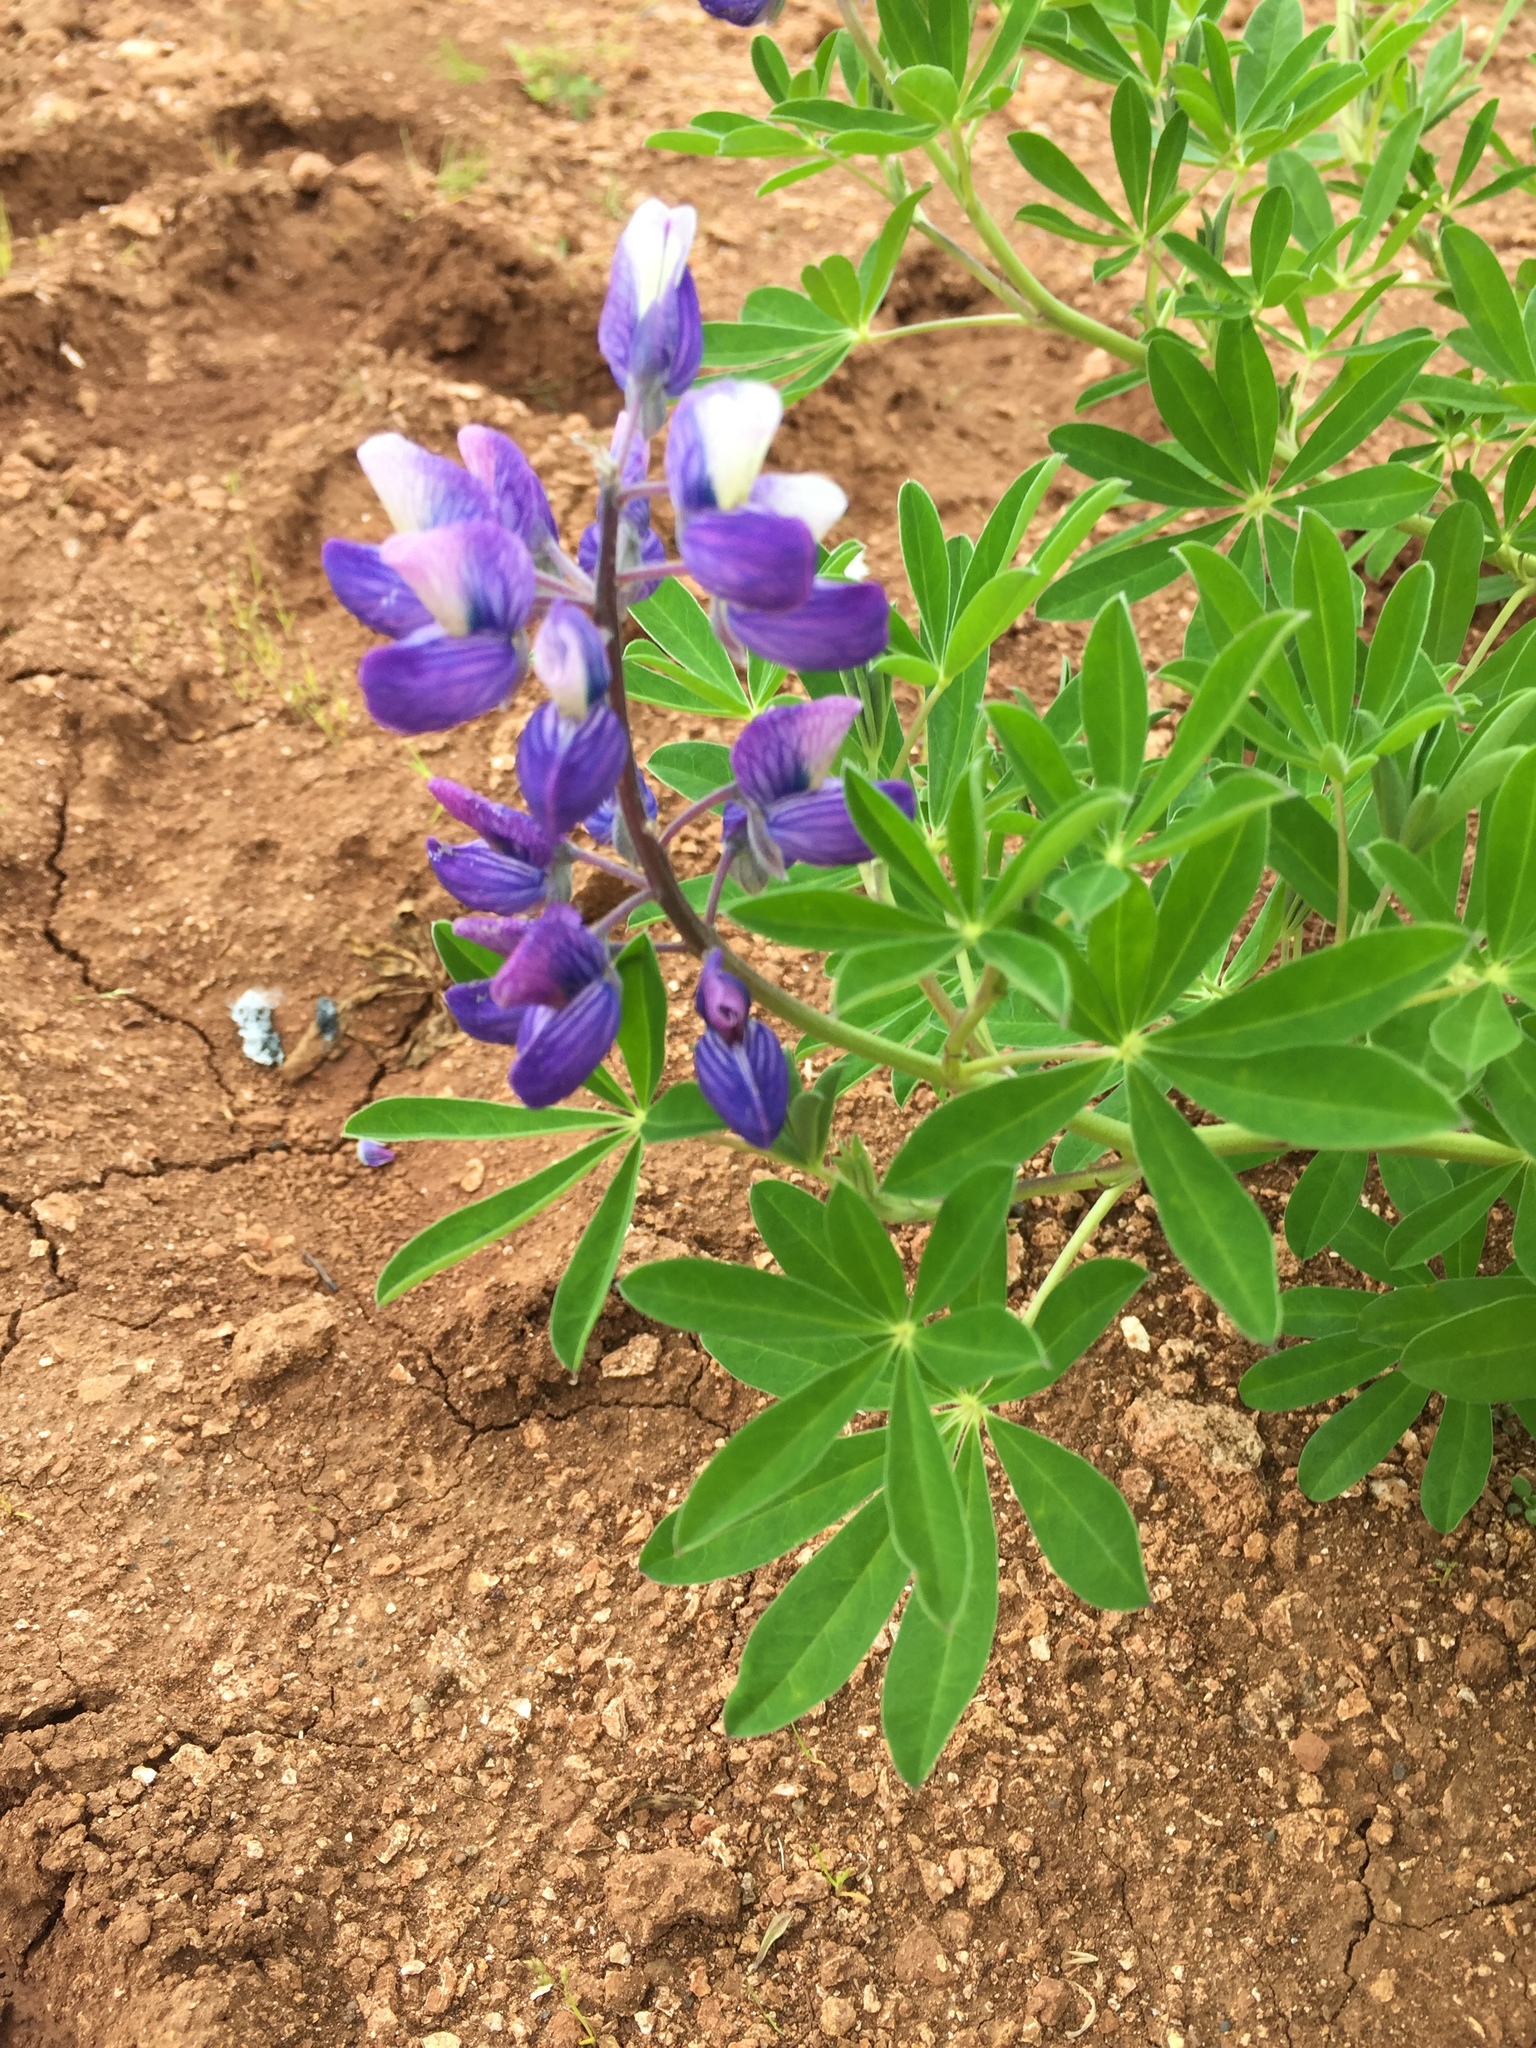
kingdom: Plantae
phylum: Tracheophyta
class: Magnoliopsida
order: Fabales
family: Fabaceae
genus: Lupinus
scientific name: Lupinus nootkatensis
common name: Nootka lupine
